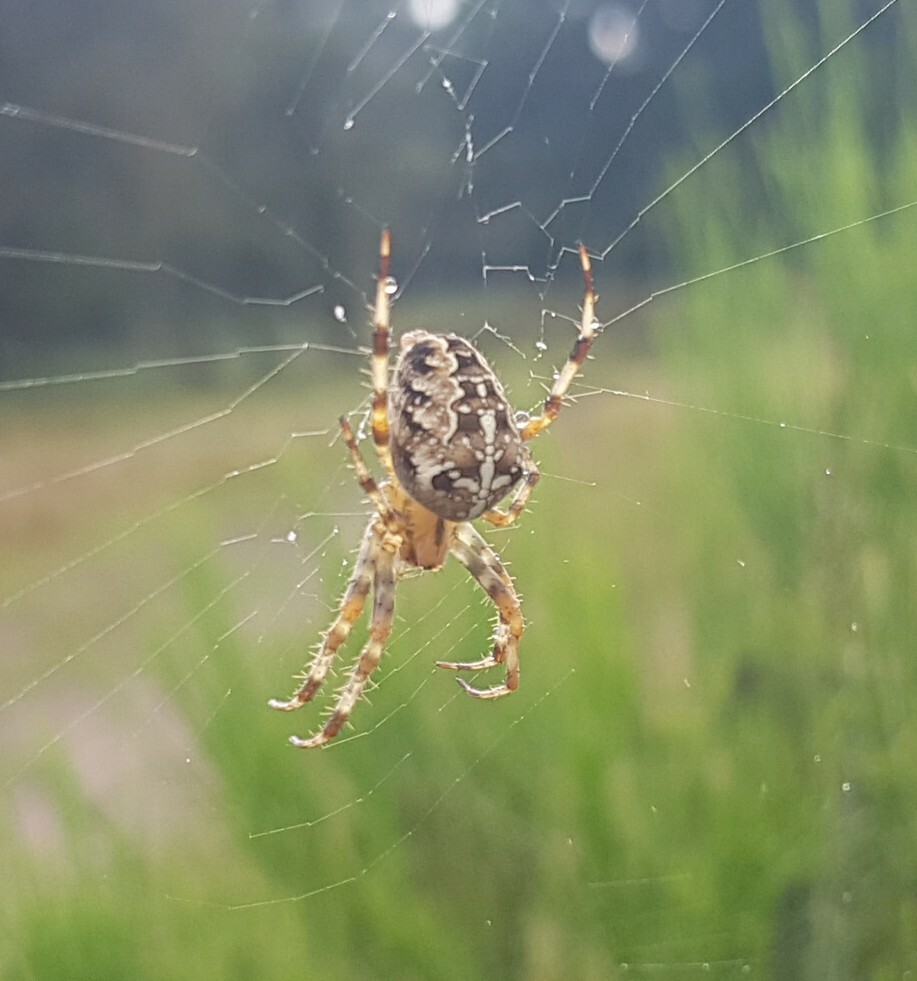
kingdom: Animalia
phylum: Arthropoda
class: Arachnida
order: Araneae
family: Araneidae
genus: Araneus
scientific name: Araneus diadematus
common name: Cross orbweaver
